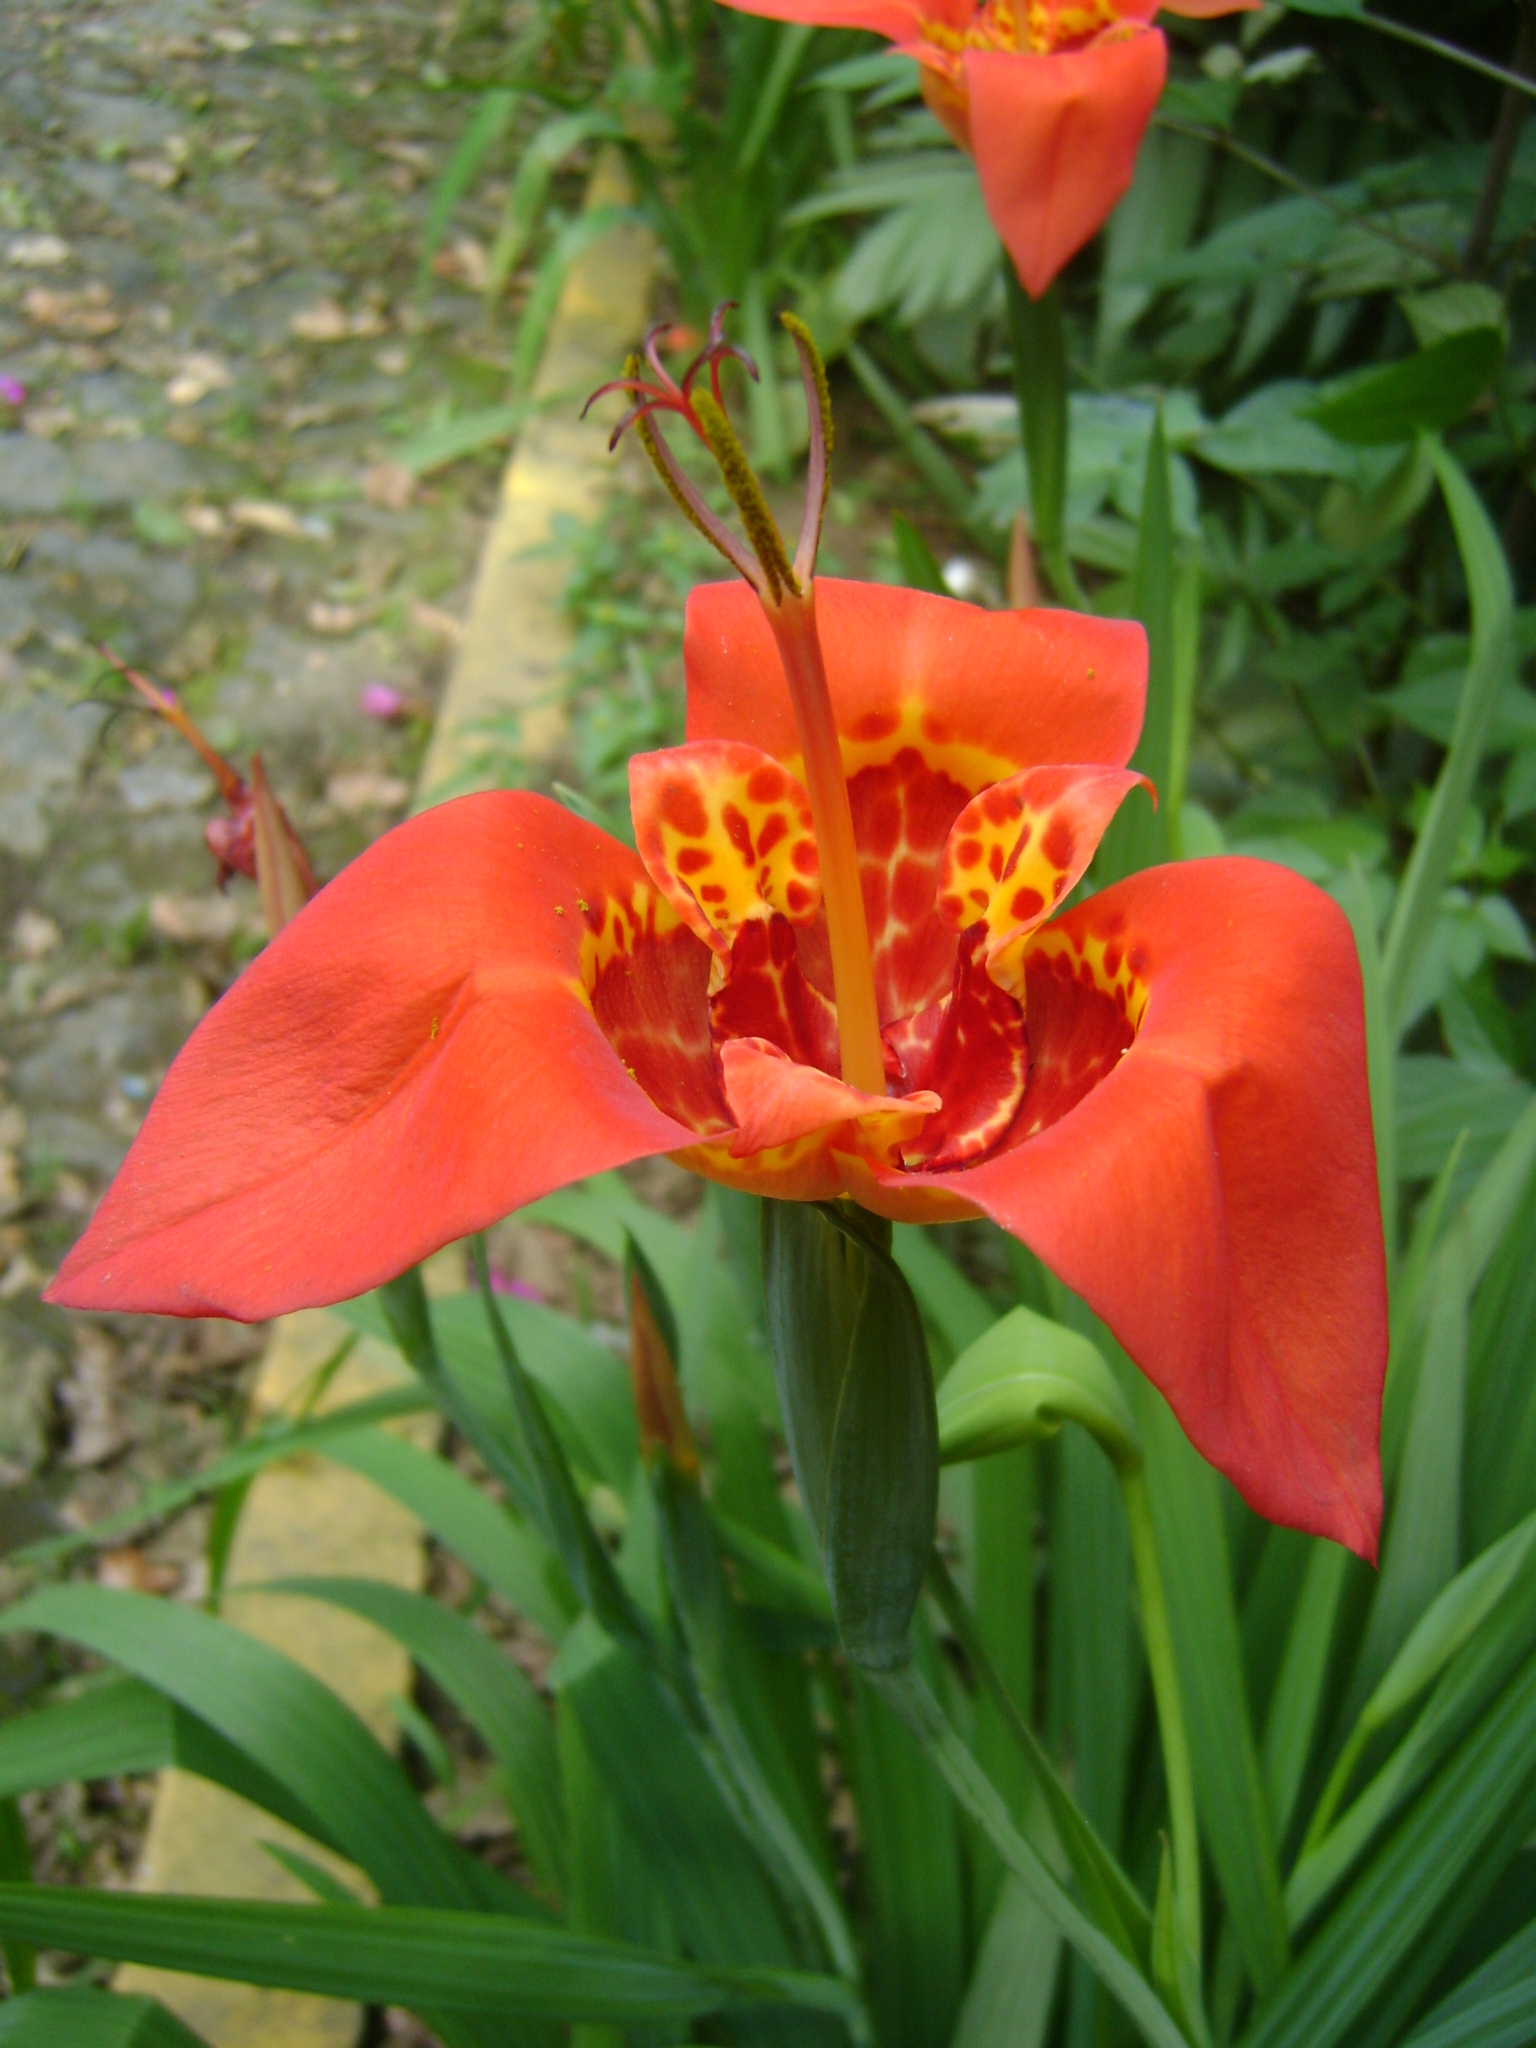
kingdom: Plantae
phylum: Tracheophyta
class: Liliopsida
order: Asparagales
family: Iridaceae
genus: Tigridia
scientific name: Tigridia pavonia
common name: Peacock-flower
